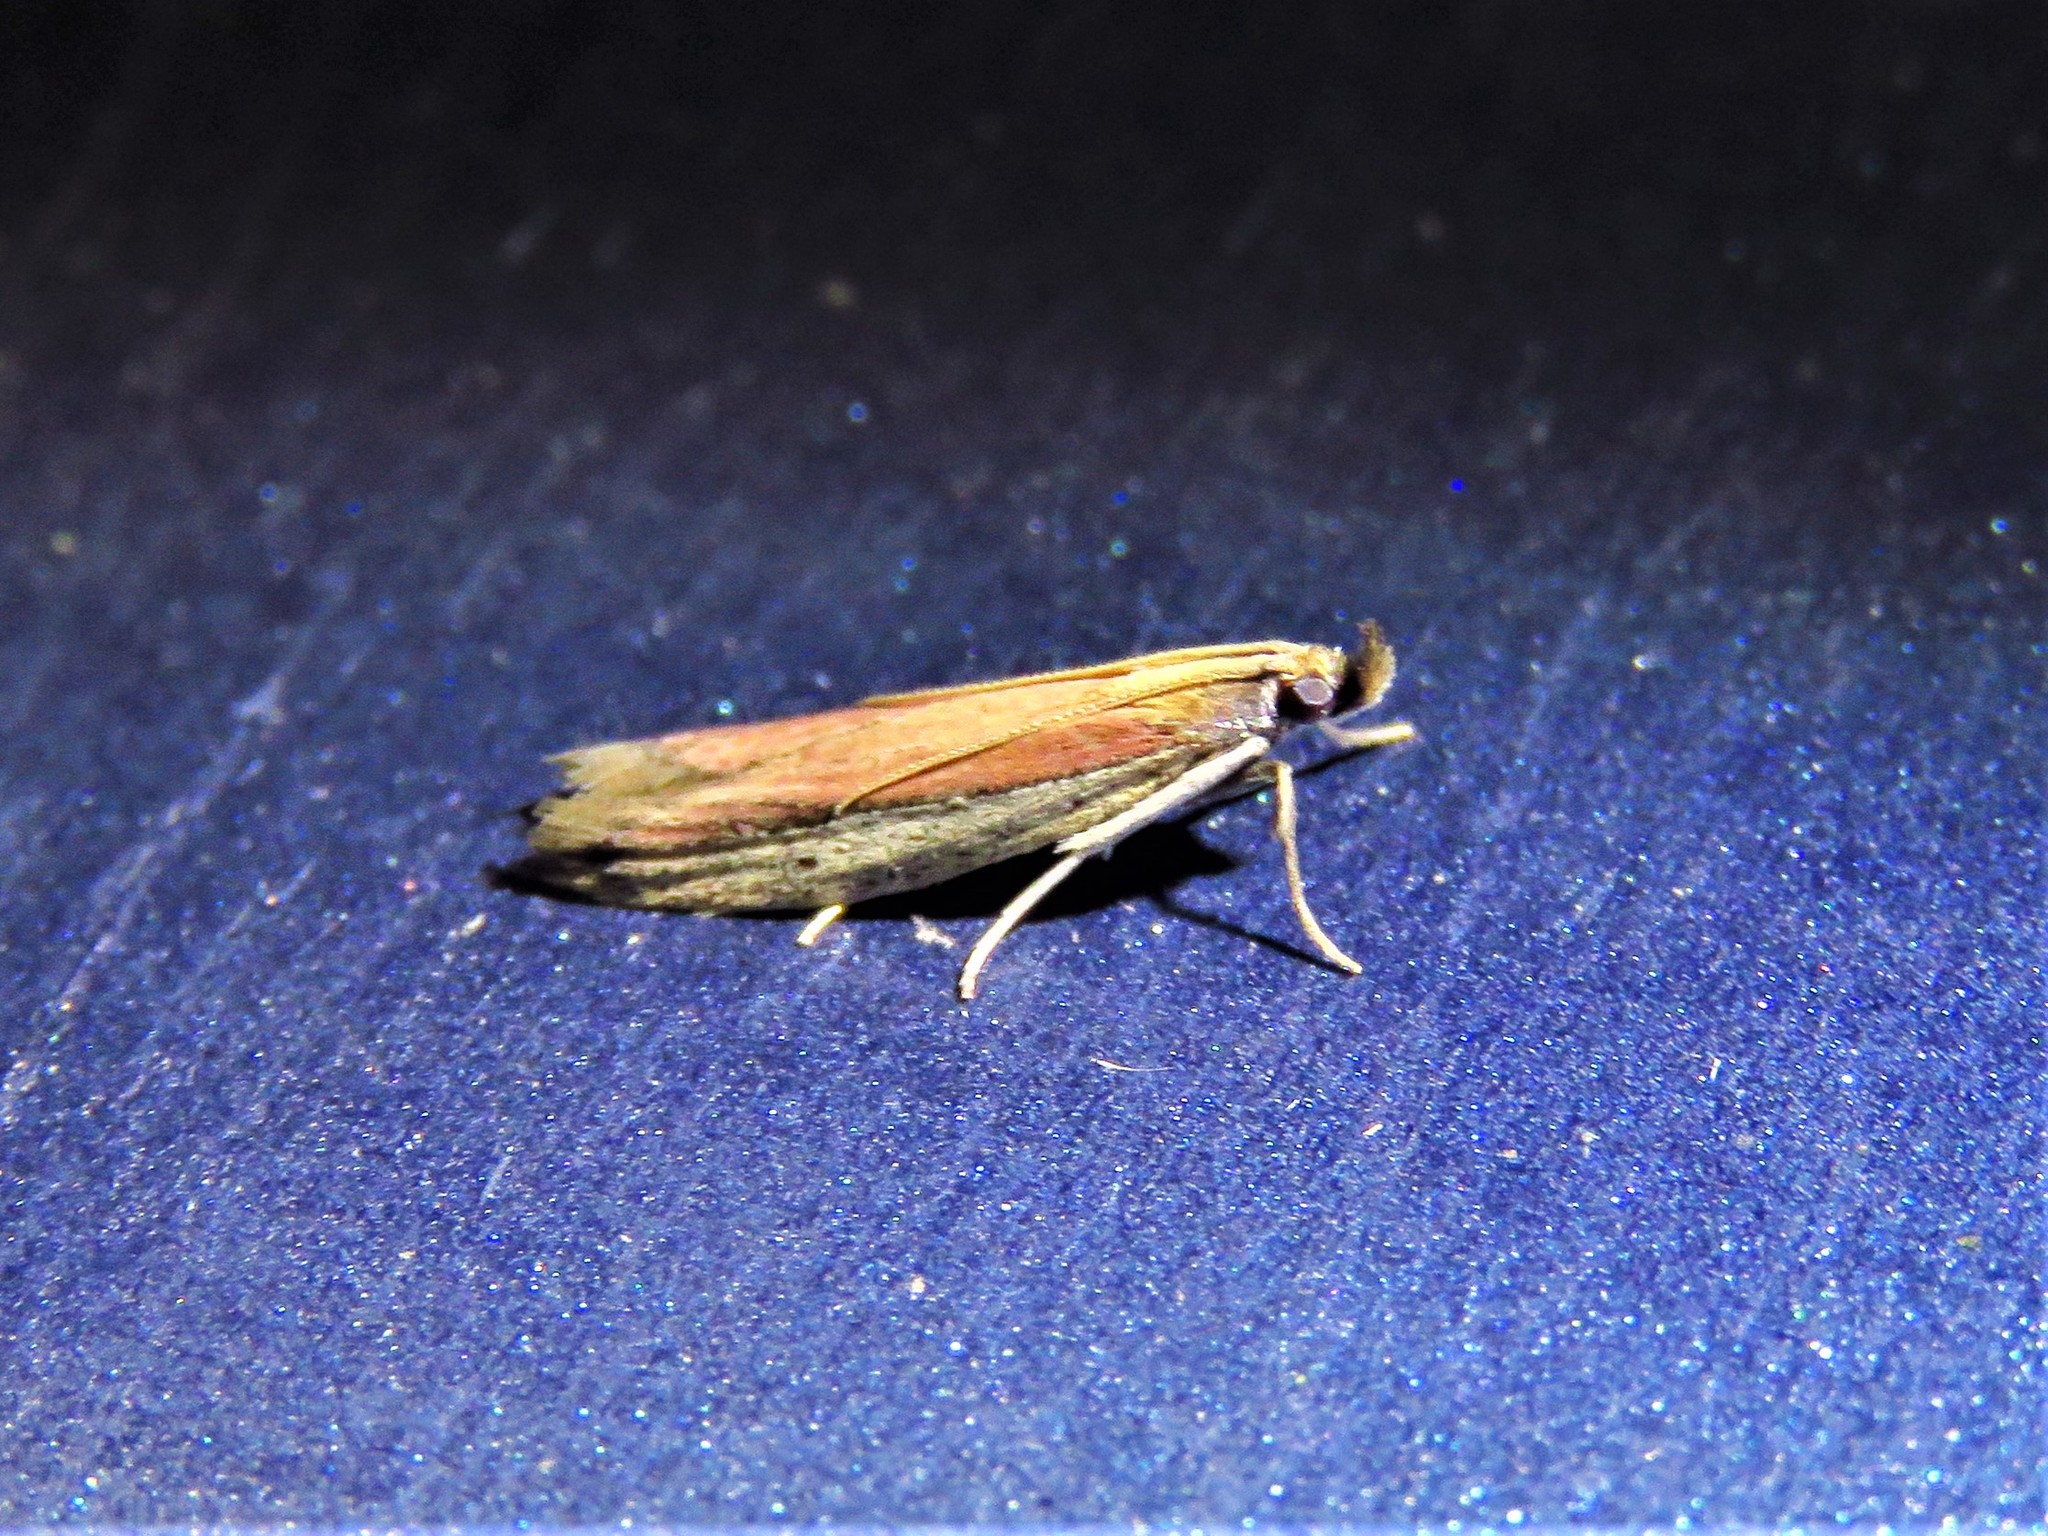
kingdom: Animalia
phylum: Arthropoda
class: Insecta
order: Lepidoptera
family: Pyralidae
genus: Tampa
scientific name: Tampa dimediatella
